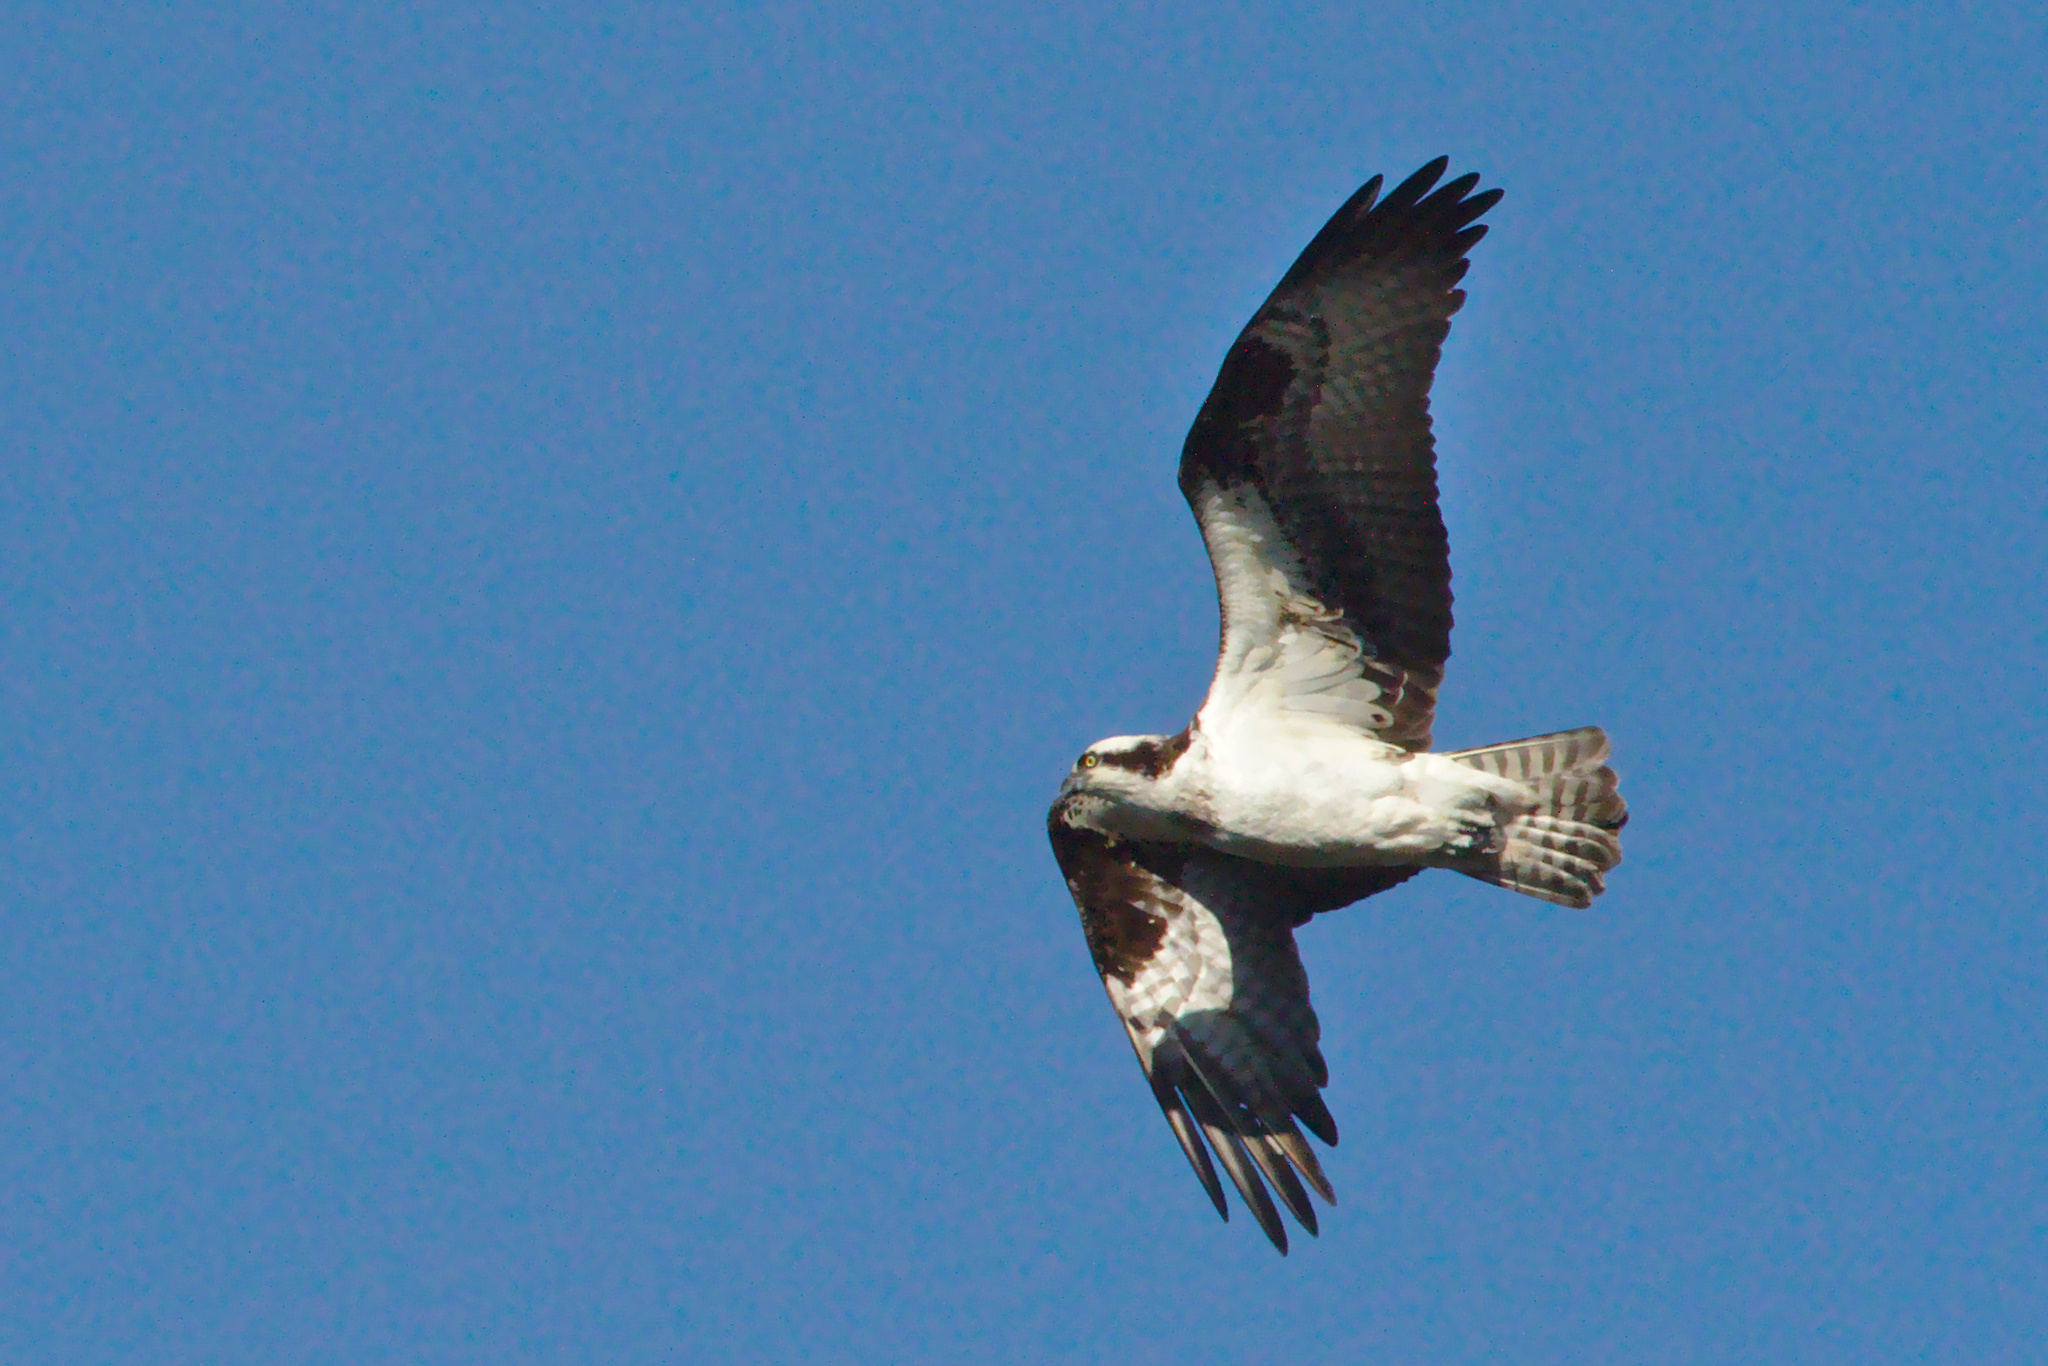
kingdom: Animalia
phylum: Chordata
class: Aves
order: Accipitriformes
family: Pandionidae
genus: Pandion
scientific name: Pandion haliaetus
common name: Osprey
